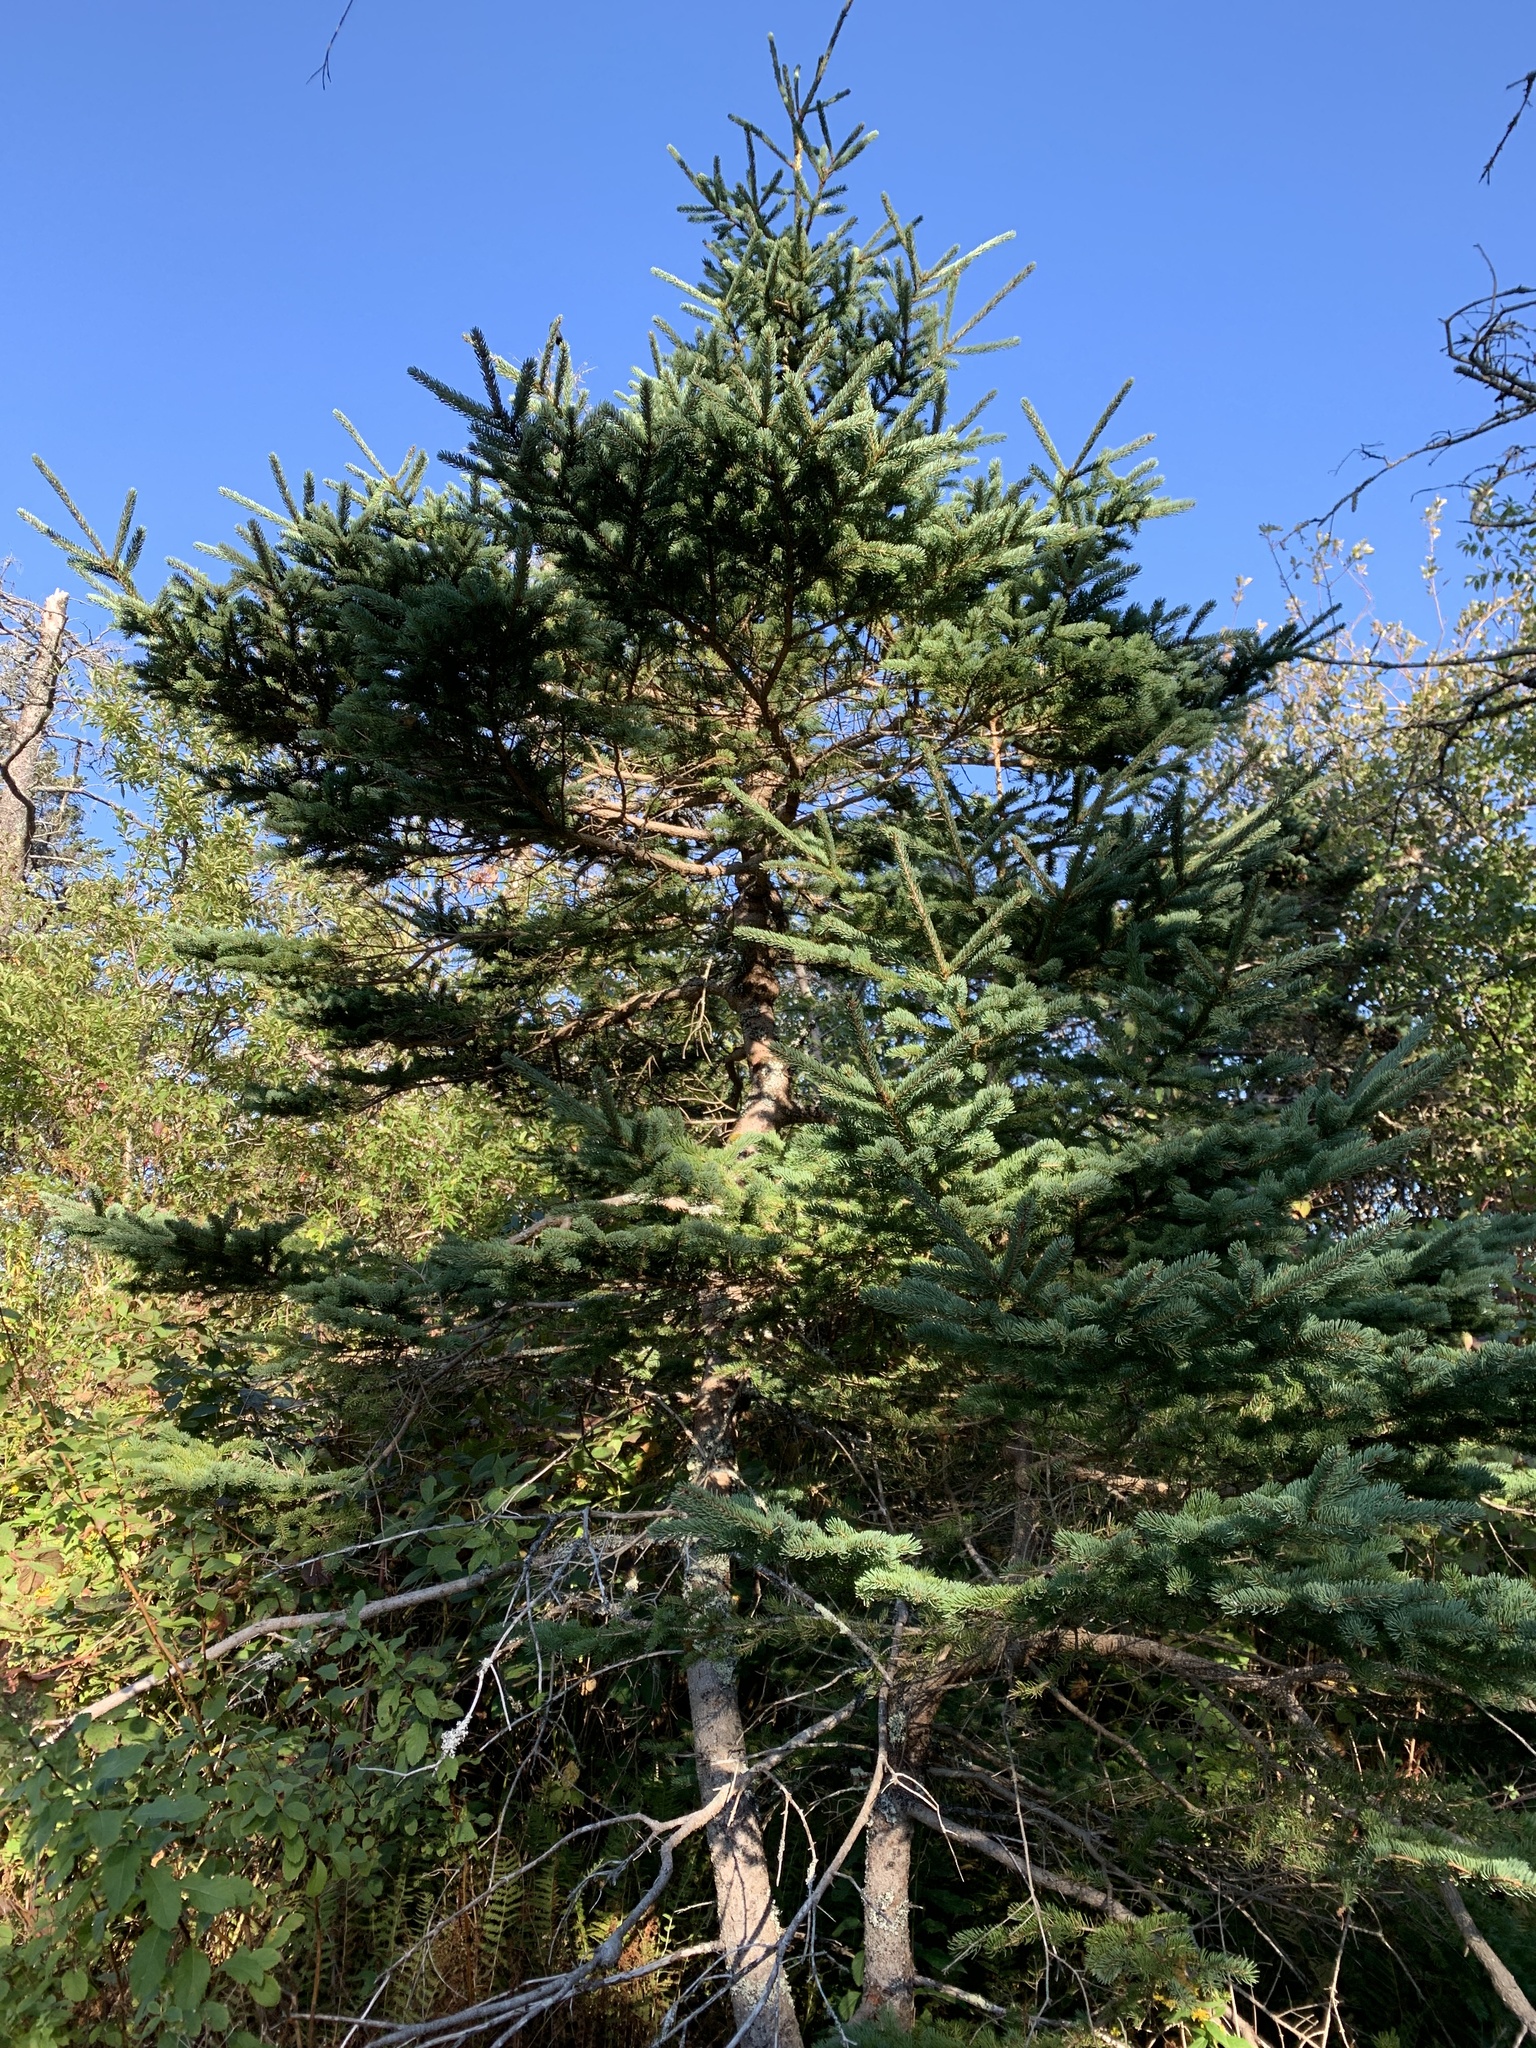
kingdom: Plantae
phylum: Tracheophyta
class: Pinopsida
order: Pinales
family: Pinaceae
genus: Picea
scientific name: Picea glauca
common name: White spruce
